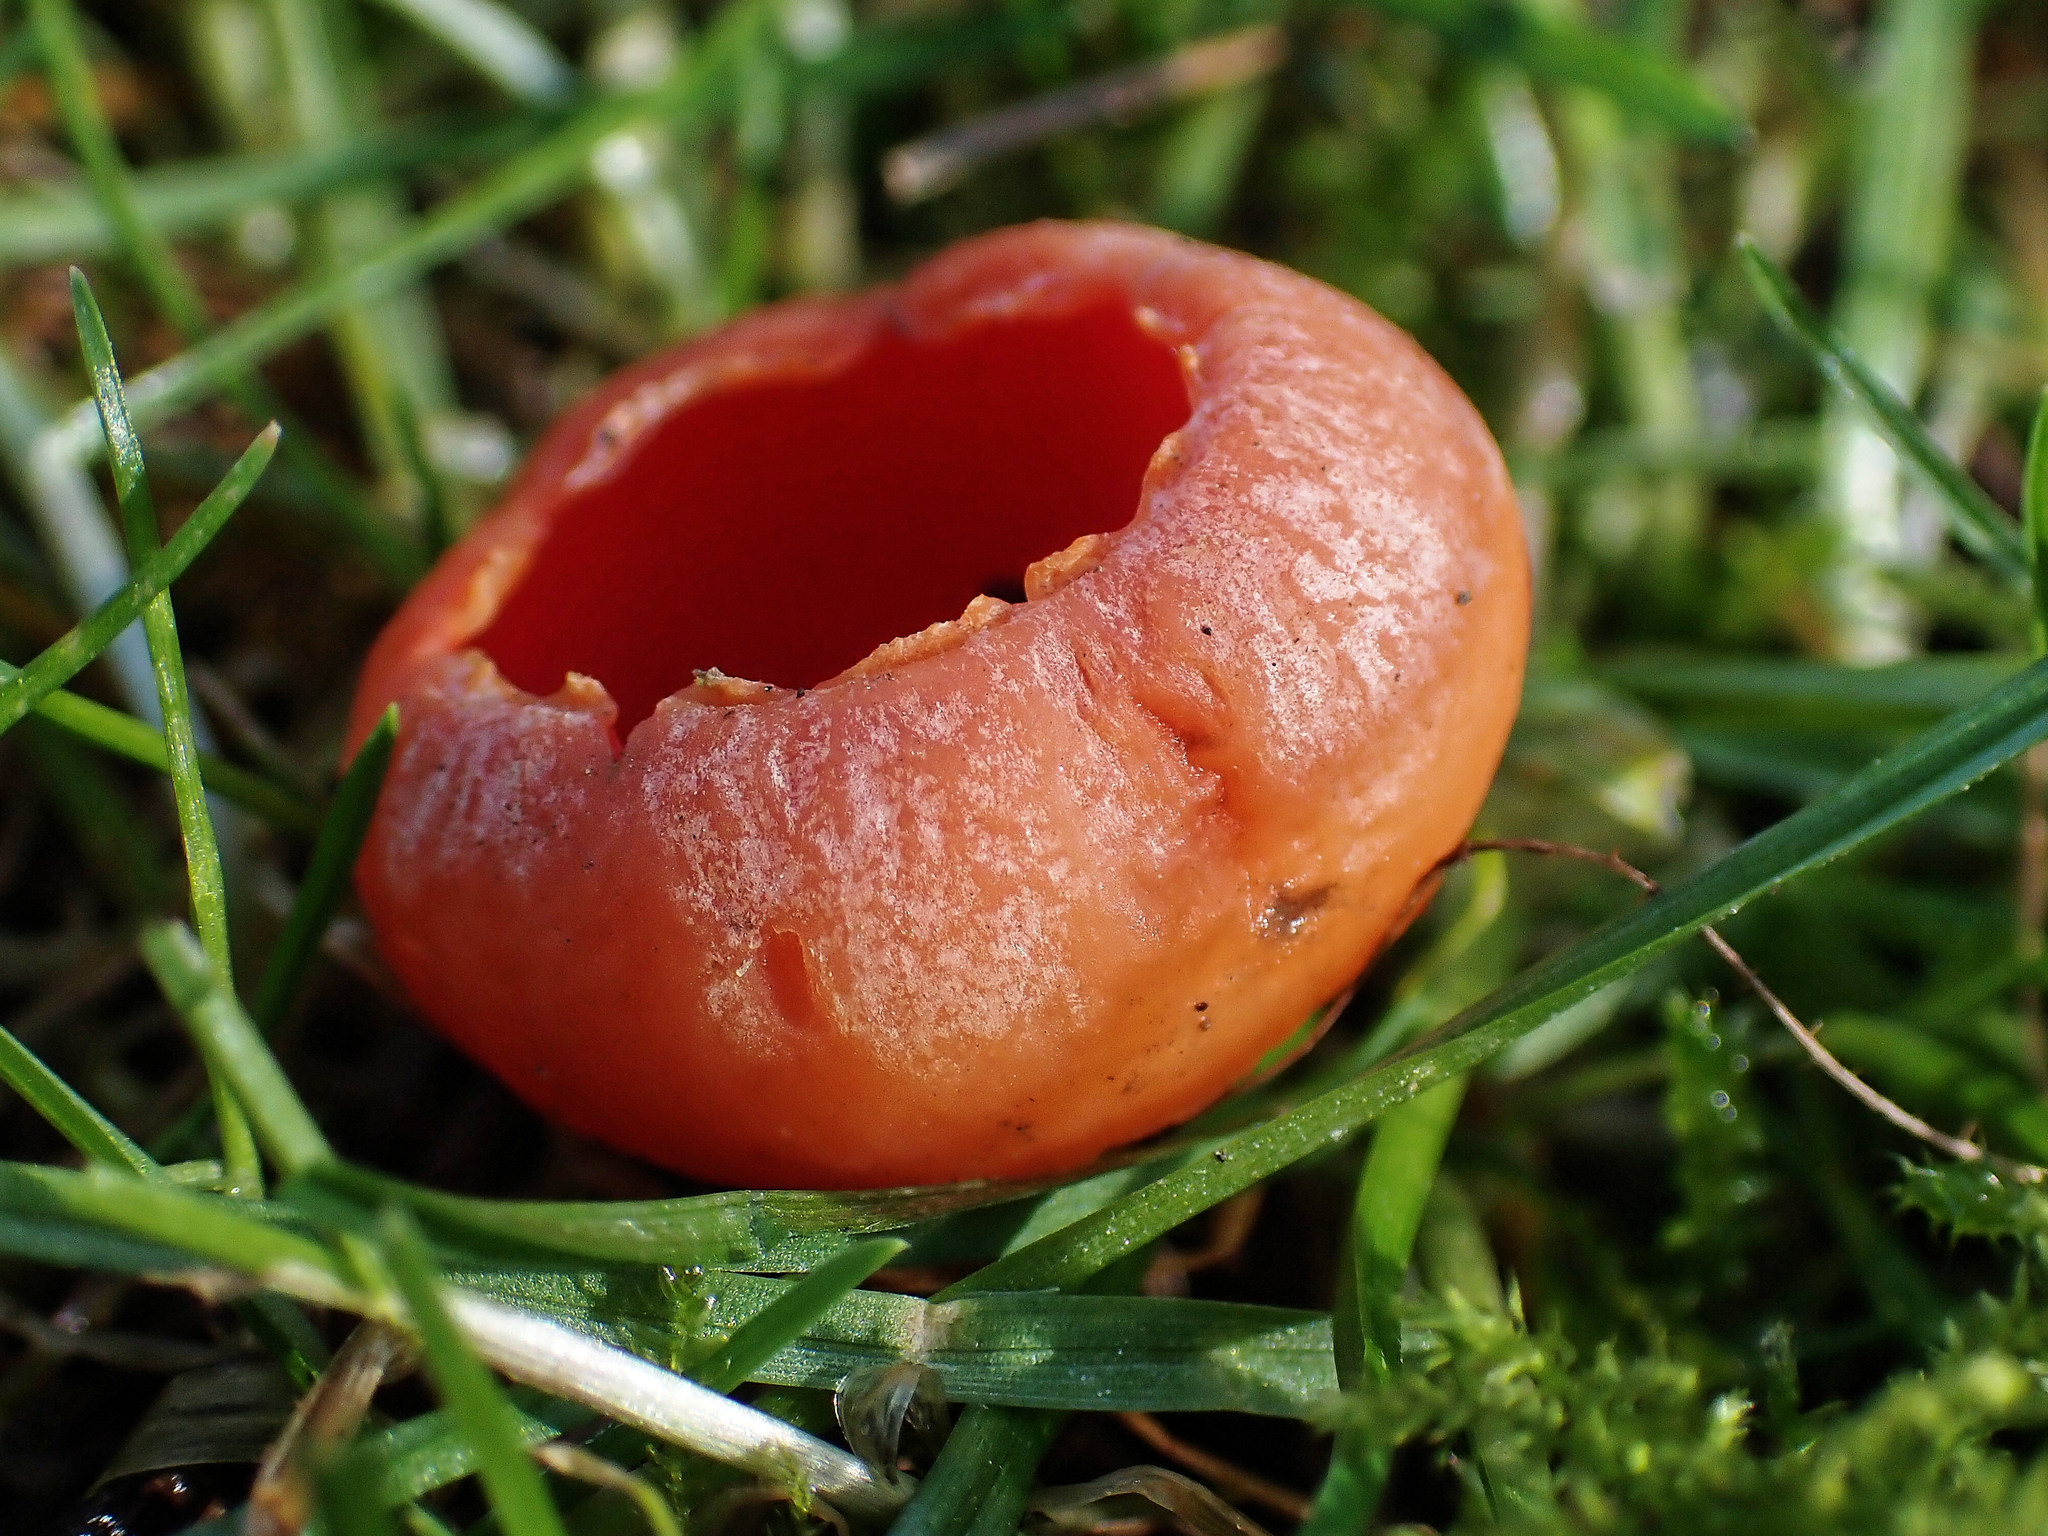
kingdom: Fungi
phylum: Ascomycota
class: Pezizomycetes
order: Pezizales
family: Sarcoscyphaceae
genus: Sarcoscypha
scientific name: Sarcoscypha coccinea
